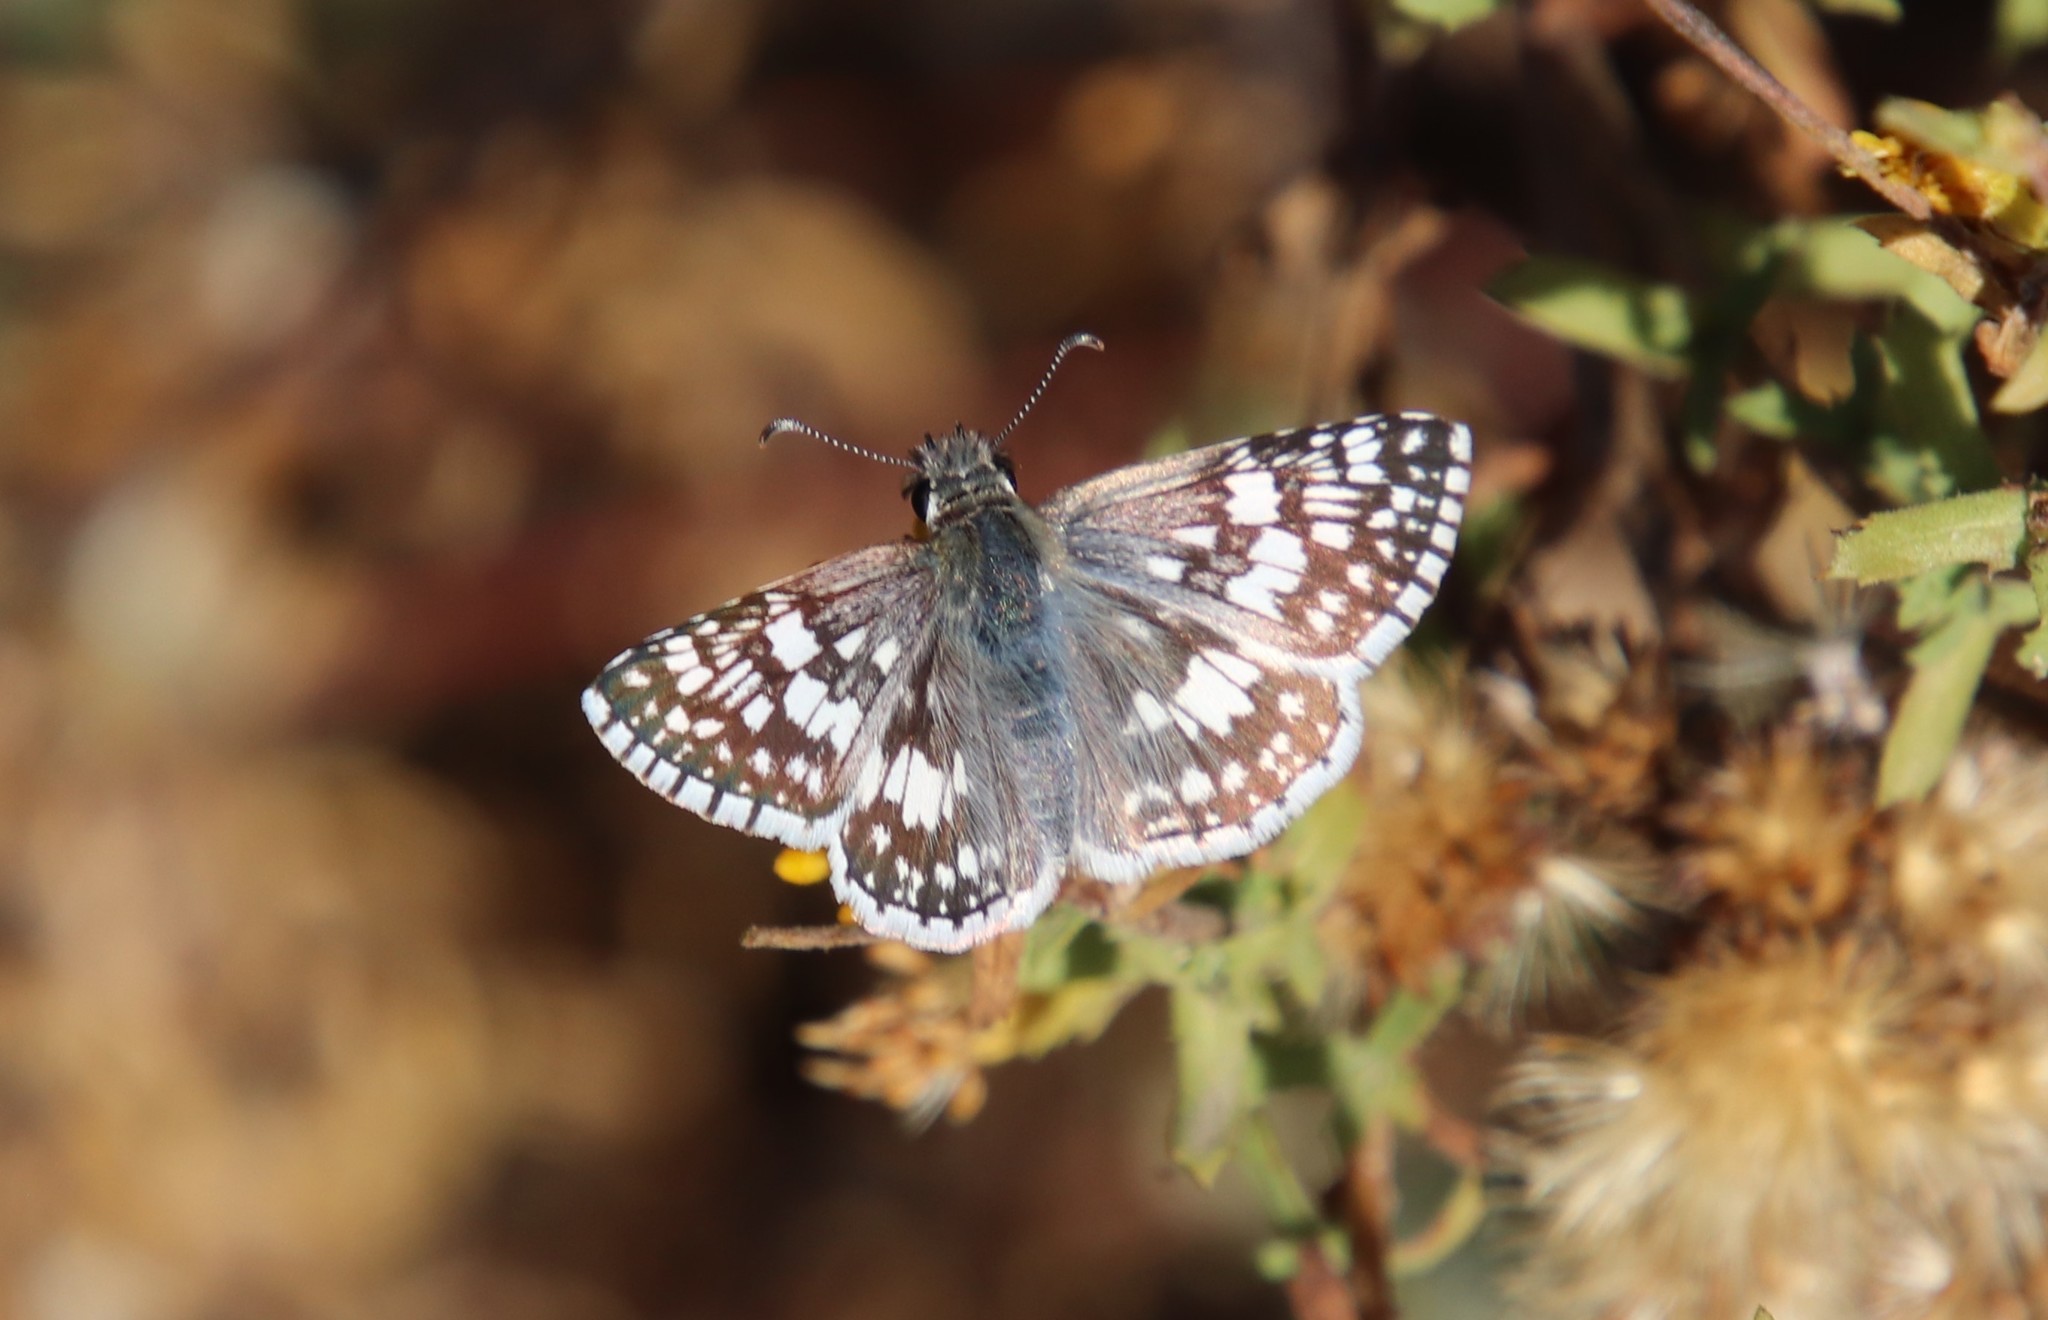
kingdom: Animalia
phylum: Arthropoda
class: Insecta
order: Lepidoptera
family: Hesperiidae
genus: Burnsius
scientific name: Burnsius albezens
